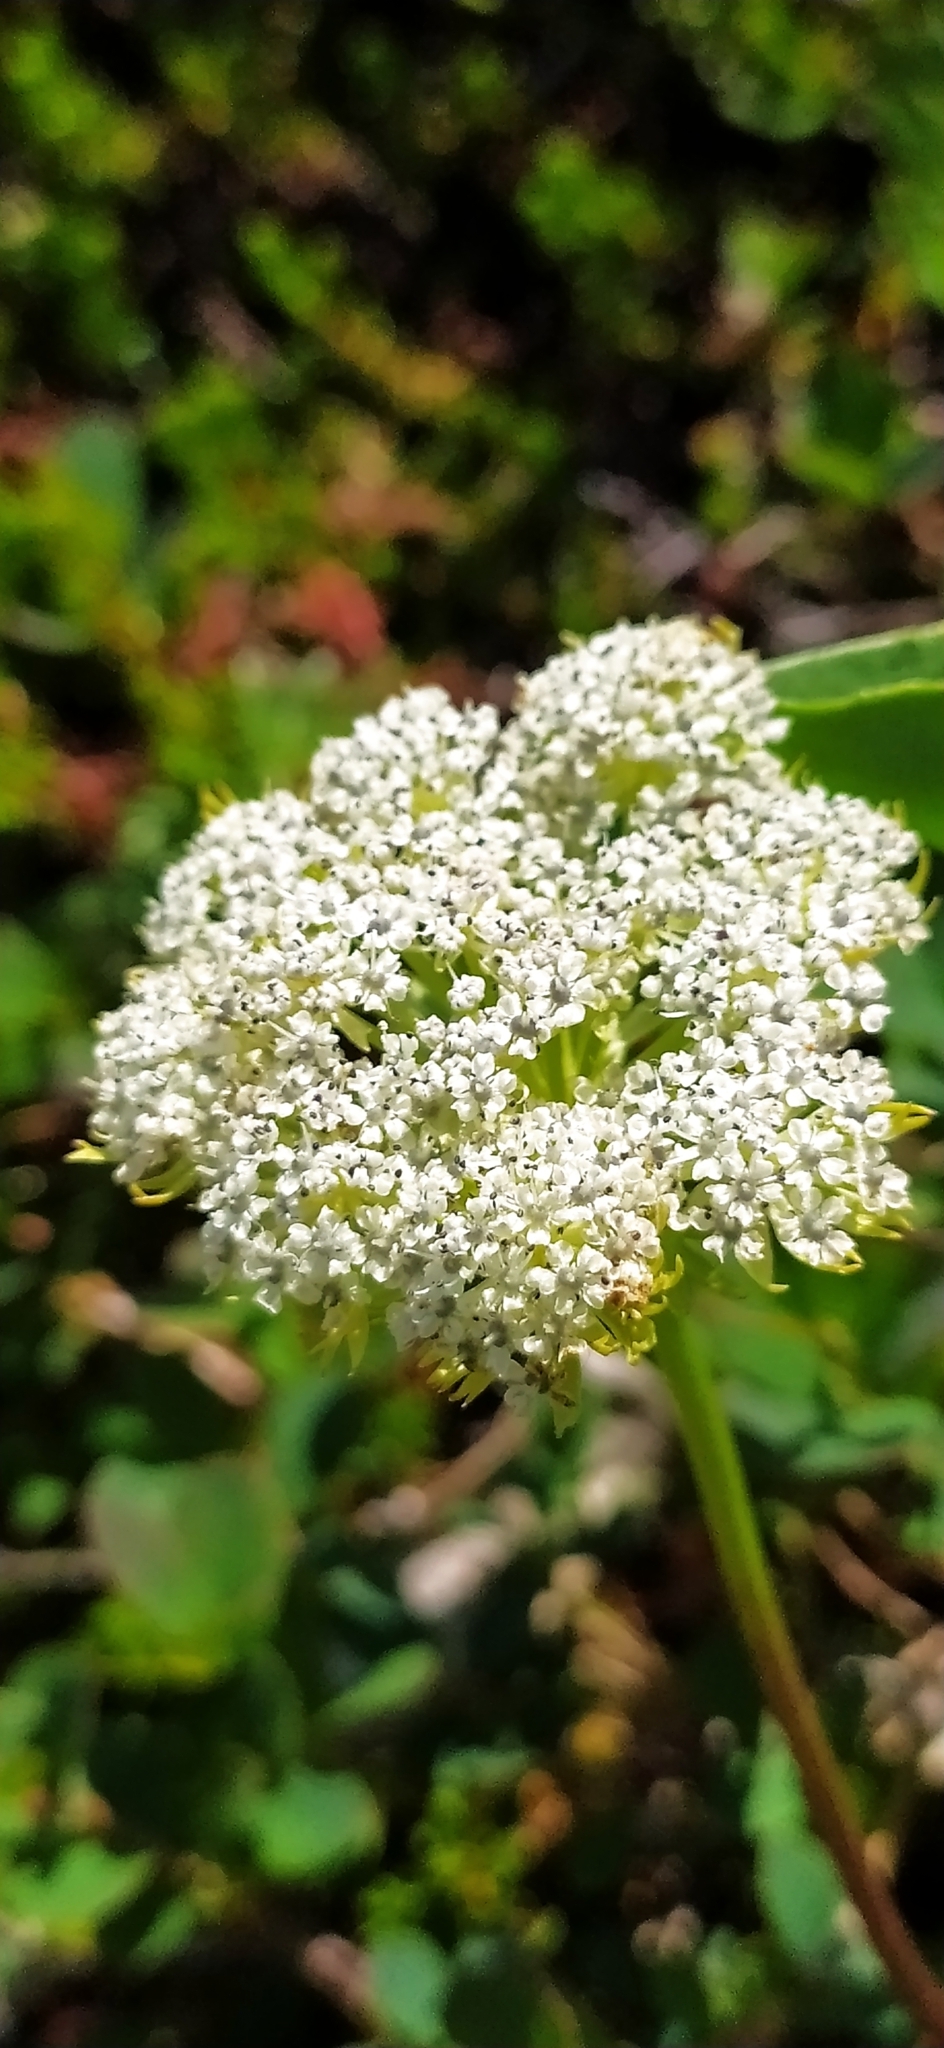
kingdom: Plantae
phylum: Tracheophyta
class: Magnoliopsida
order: Apiales
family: Apiaceae
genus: Pachypleurum
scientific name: Pachypleurum mutellinoides
